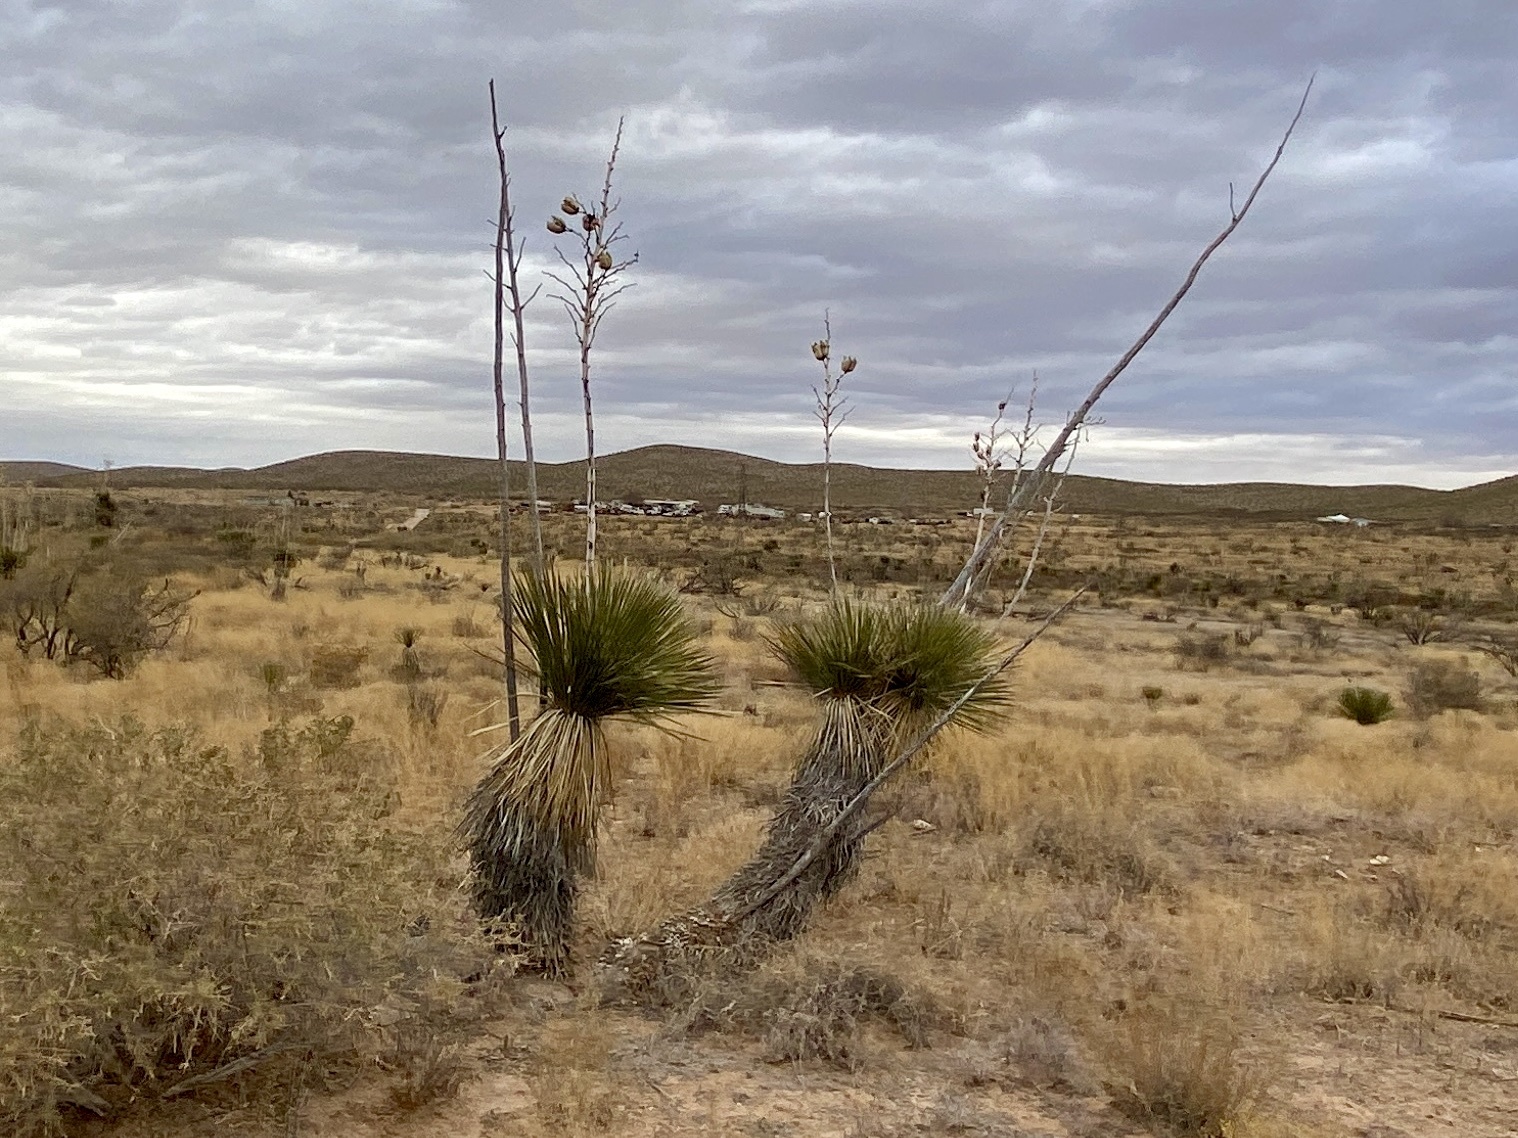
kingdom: Plantae
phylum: Tracheophyta
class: Liliopsida
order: Asparagales
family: Asparagaceae
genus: Yucca
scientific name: Yucca elata
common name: Palmella
